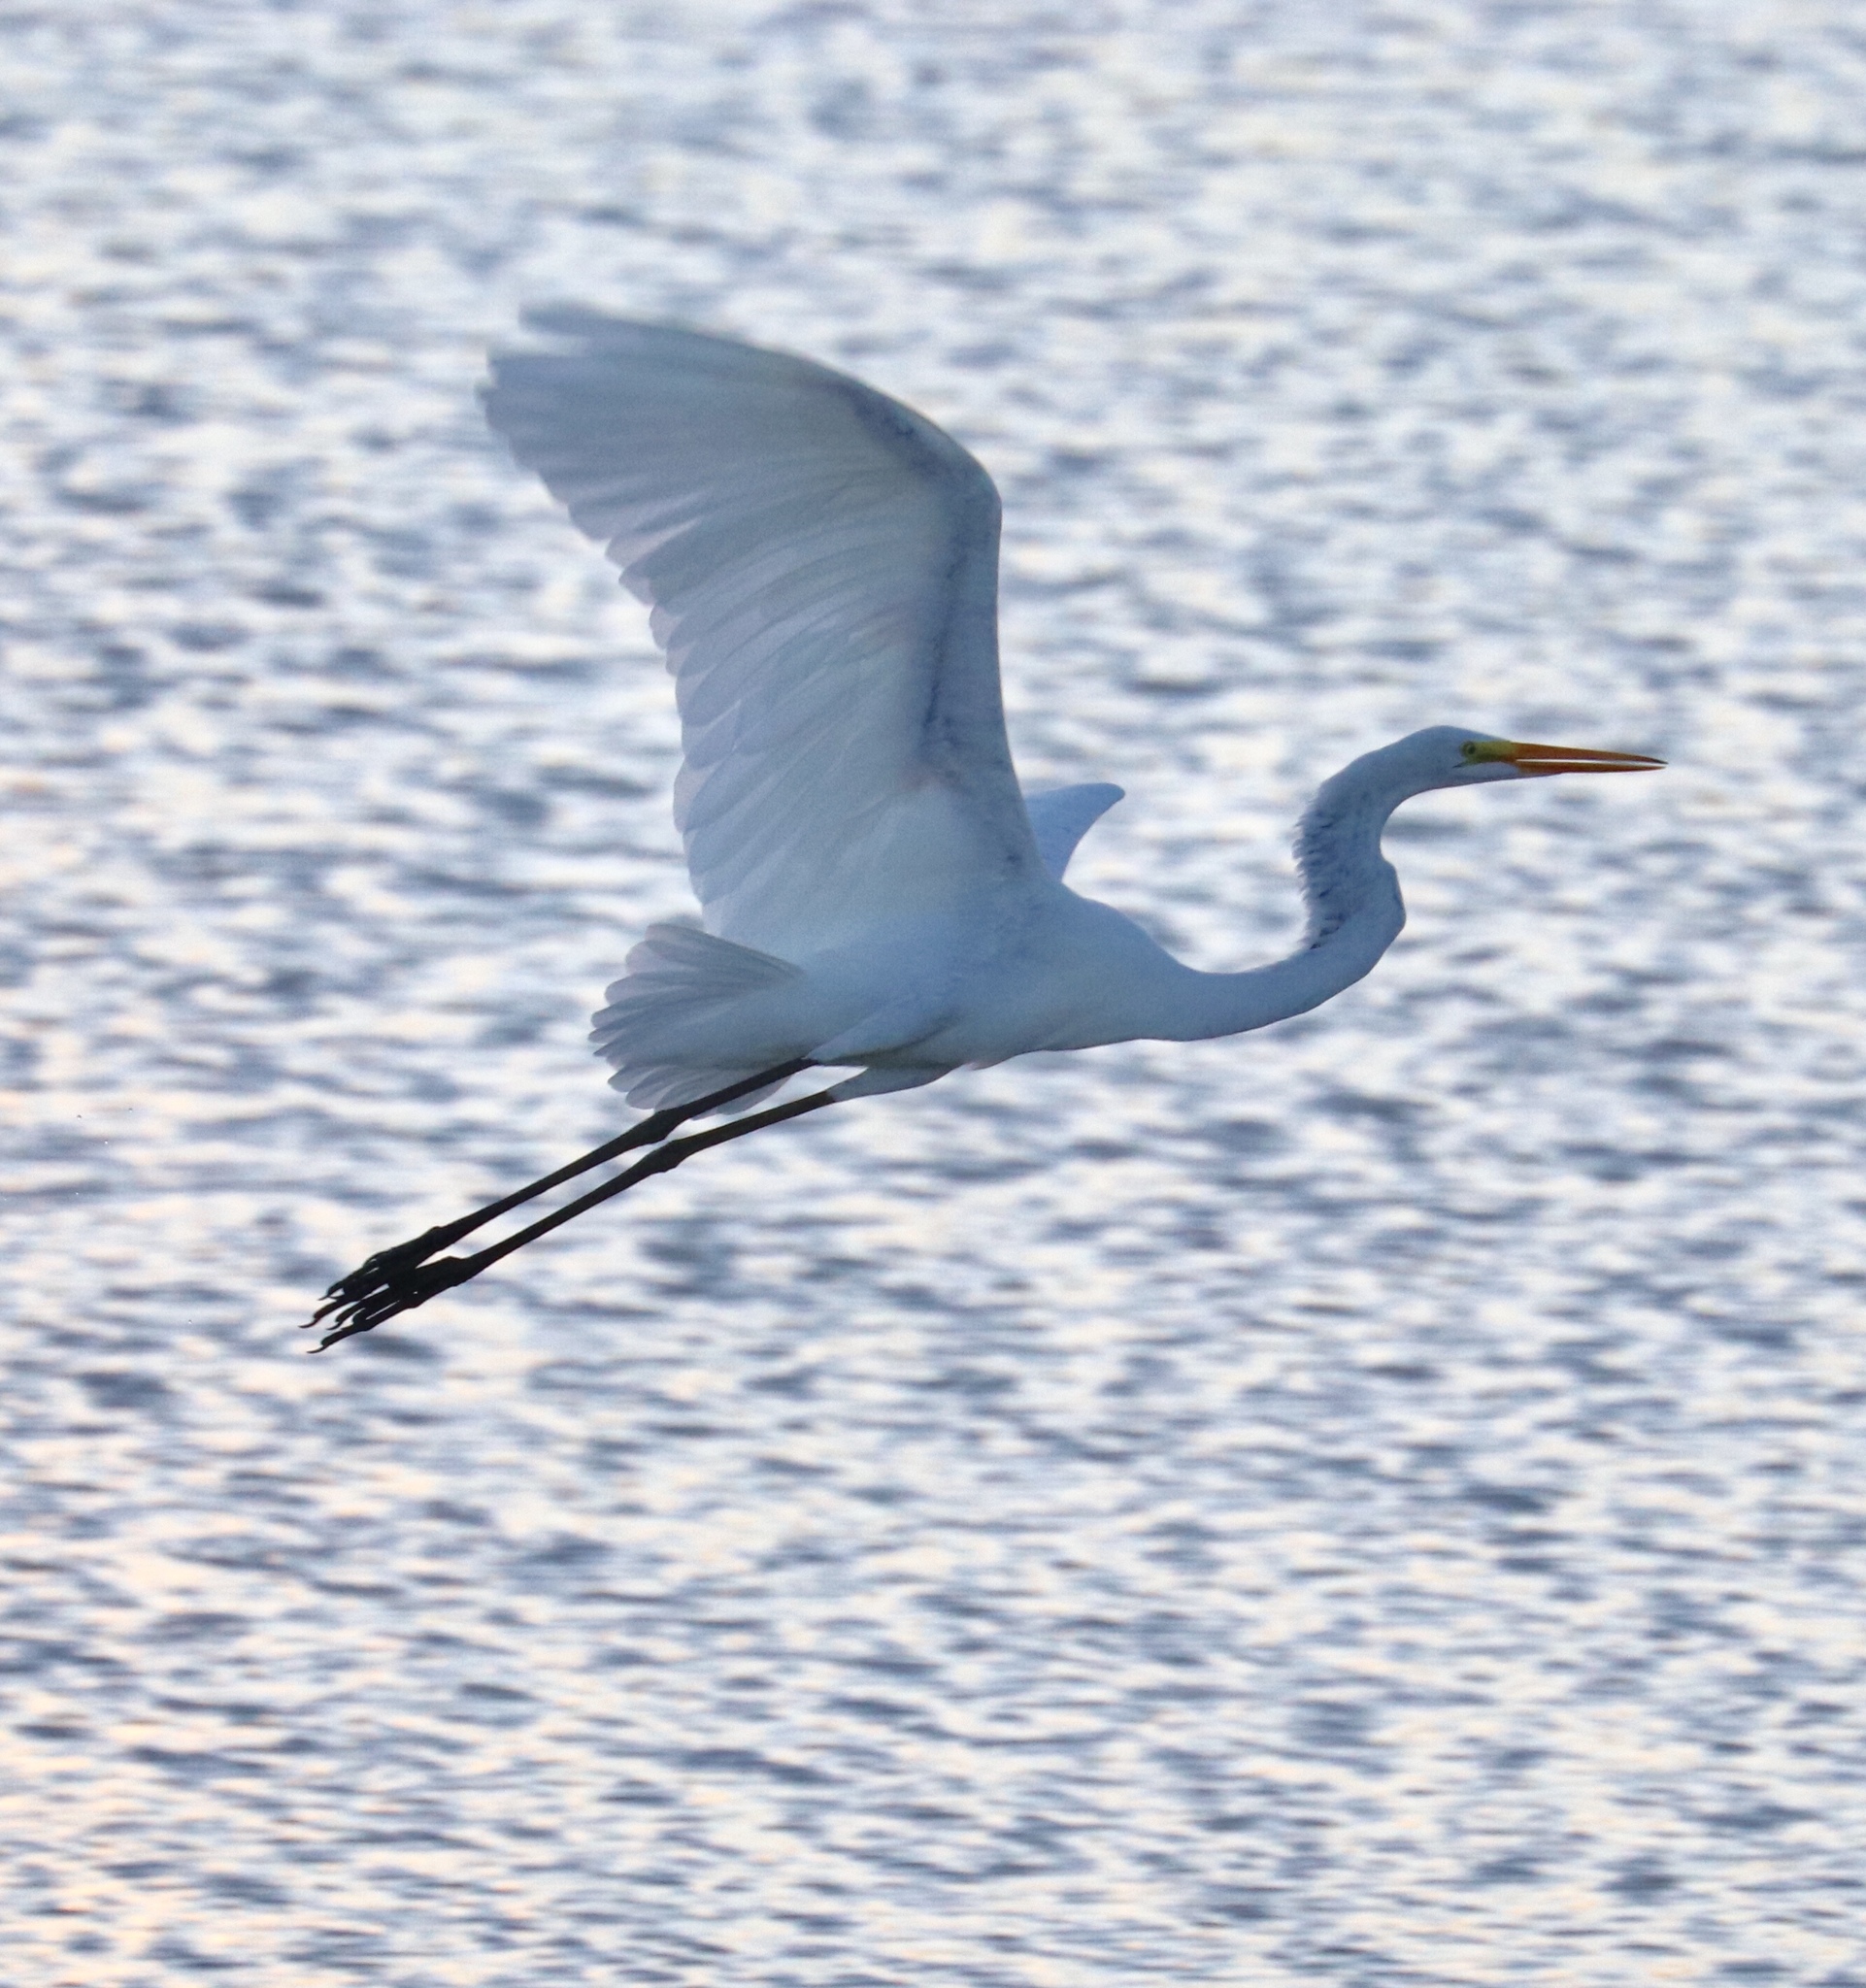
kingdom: Animalia
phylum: Chordata
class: Aves
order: Pelecaniformes
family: Ardeidae
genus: Ardea
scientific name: Ardea alba
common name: Great egret
